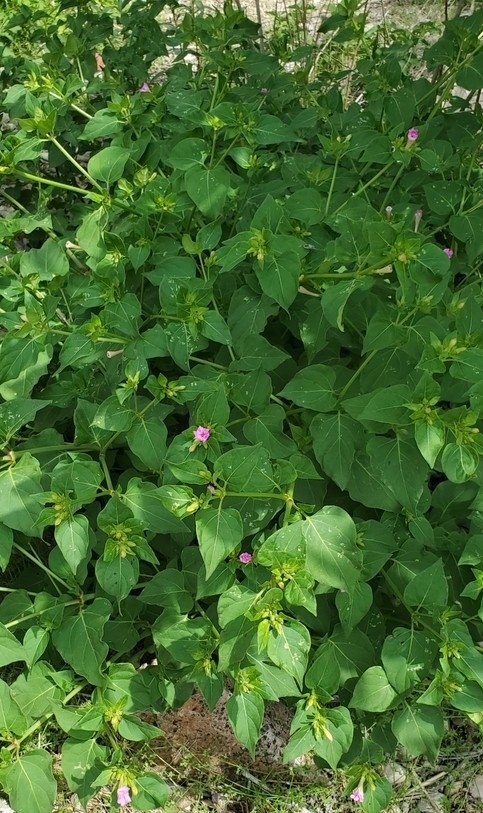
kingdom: Plantae
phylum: Tracheophyta
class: Magnoliopsida
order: Caryophyllales
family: Nyctaginaceae
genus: Mirabilis
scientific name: Mirabilis jalapa
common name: Marvel-of-peru
